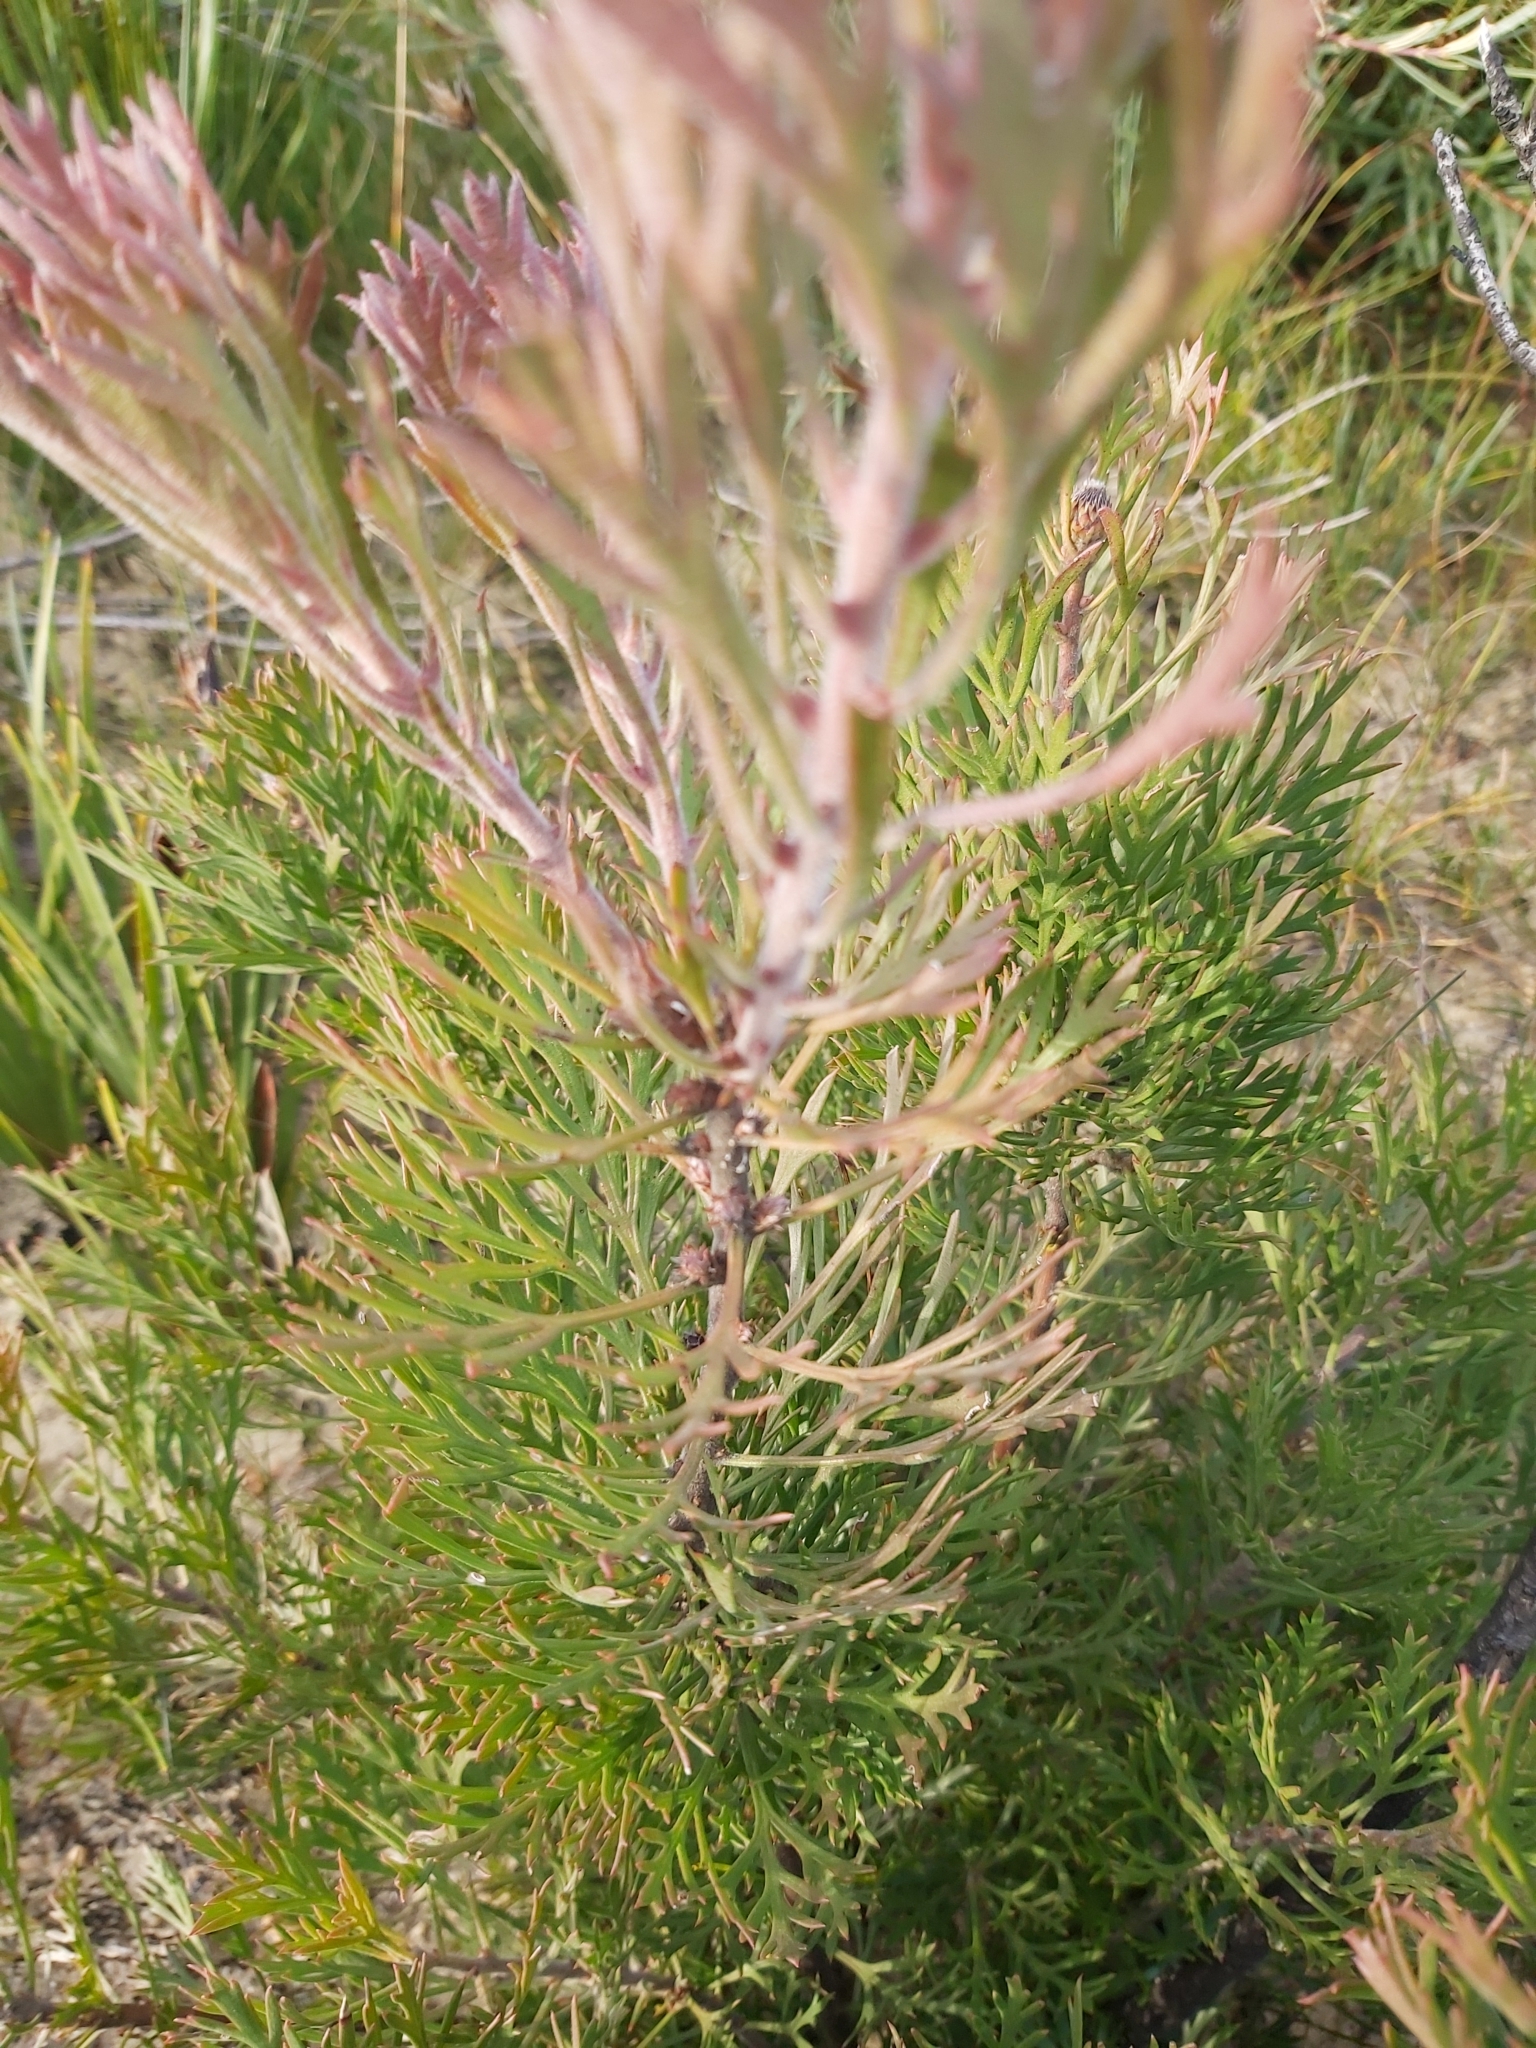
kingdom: Plantae
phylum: Tracheophyta
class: Magnoliopsida
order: Proteales
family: Proteaceae
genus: Isopogon
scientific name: Isopogon anemonifolius
